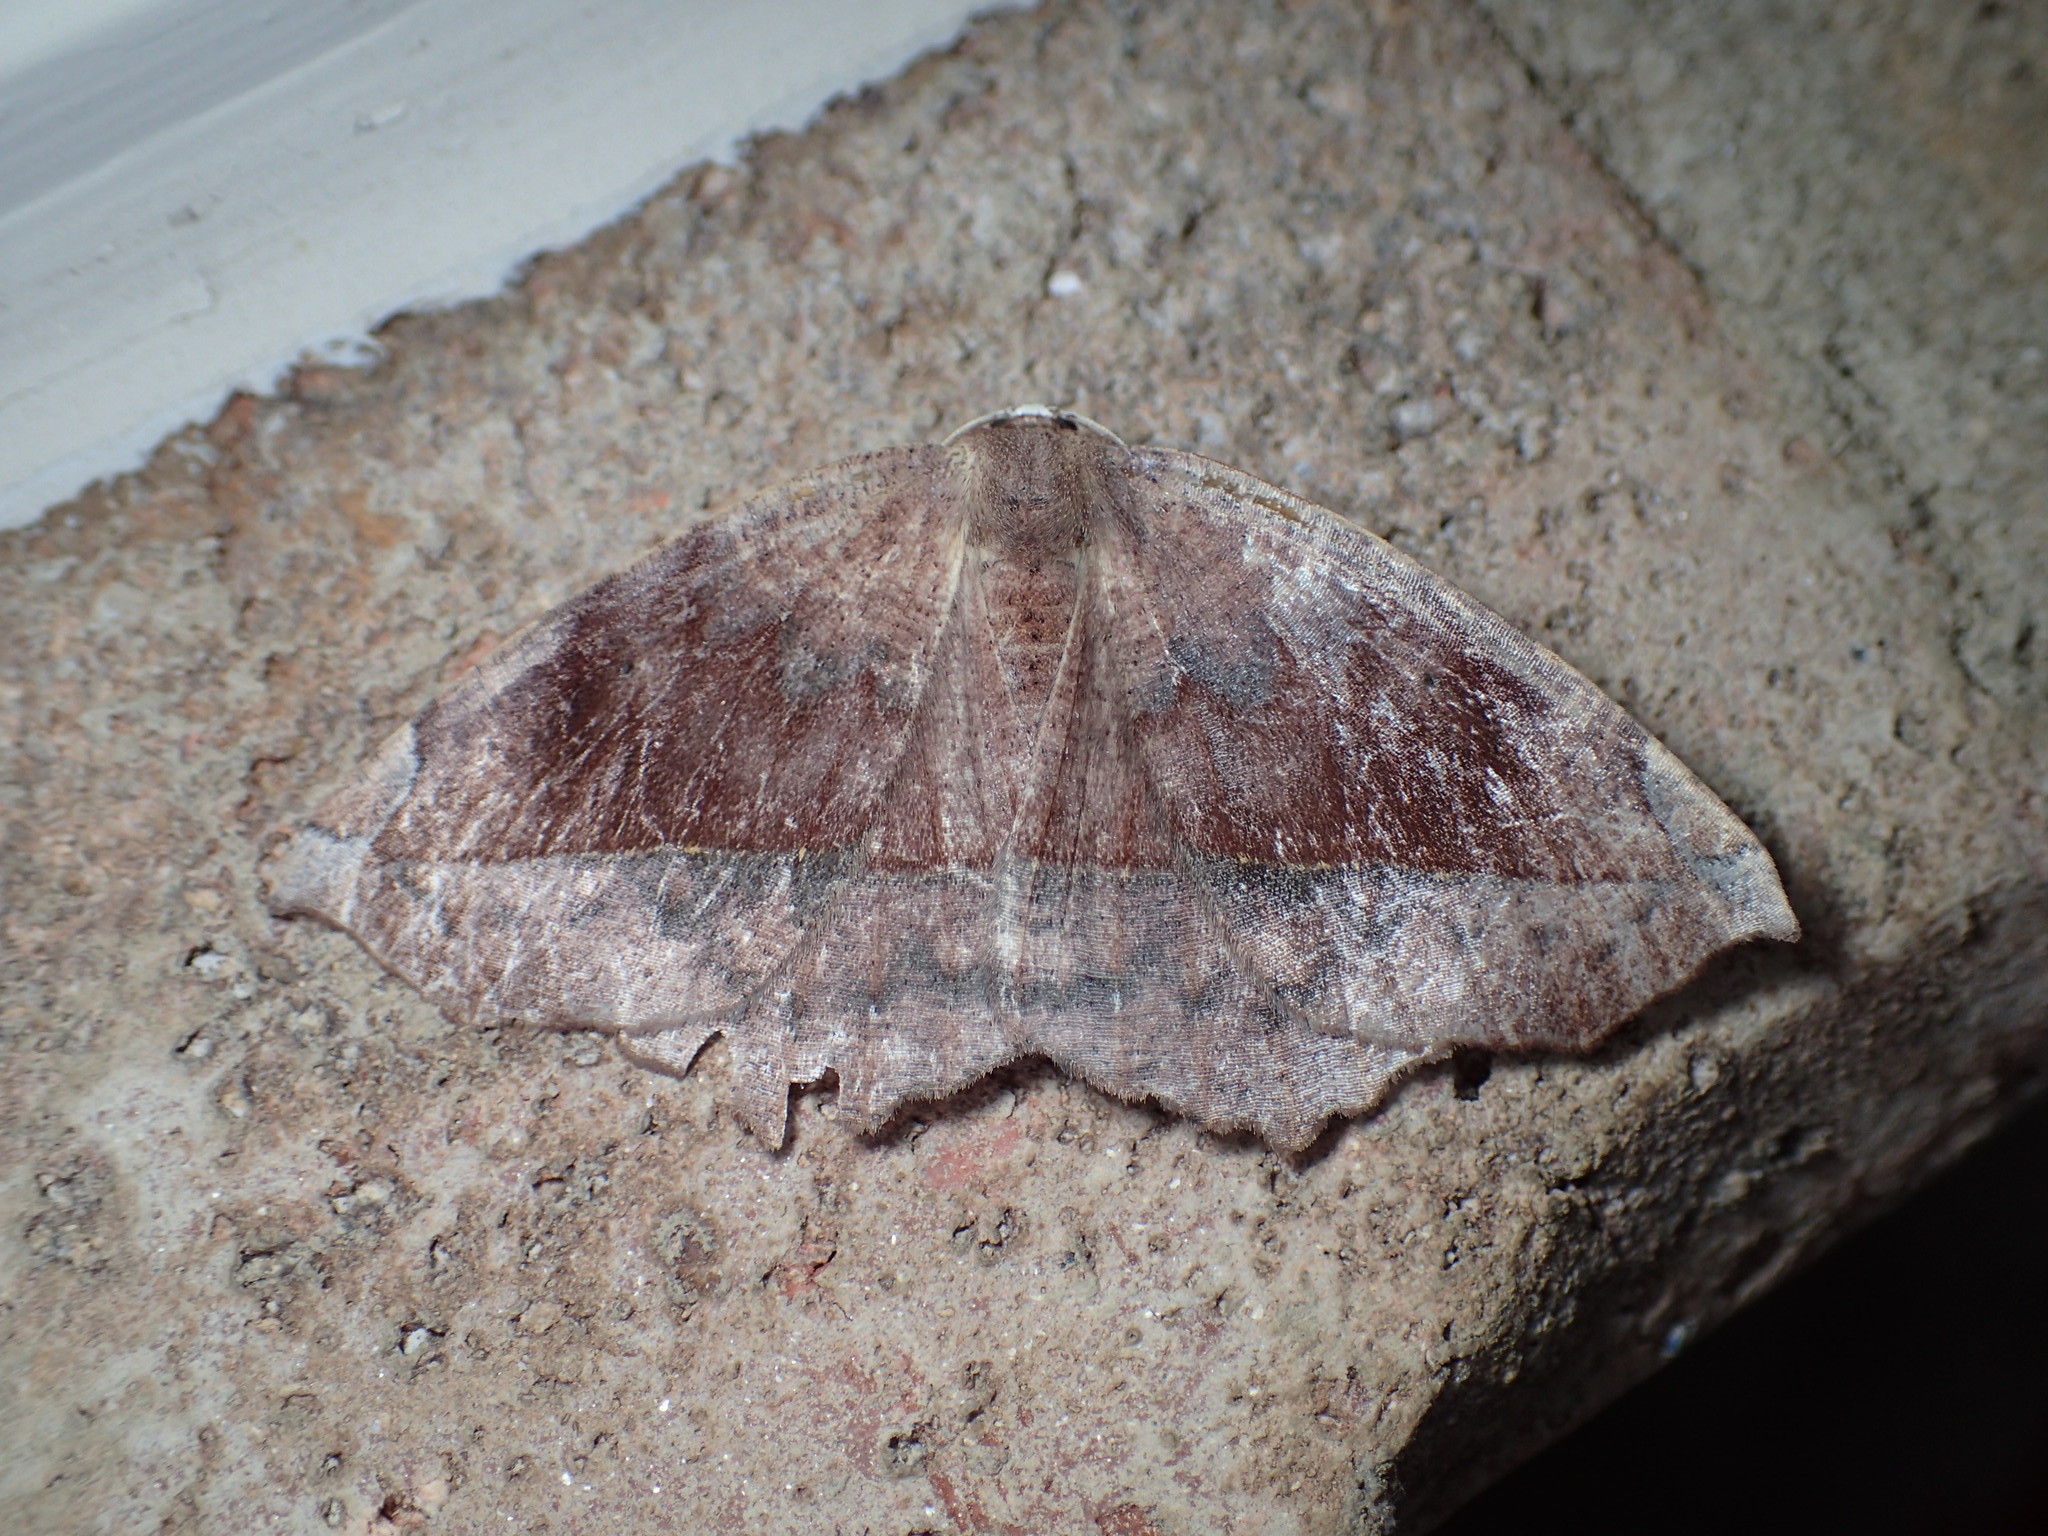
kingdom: Animalia
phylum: Arthropoda
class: Insecta
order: Lepidoptera
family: Geometridae
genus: Eutrapela
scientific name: Eutrapela clemataria
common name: Curved-toothed geometer
